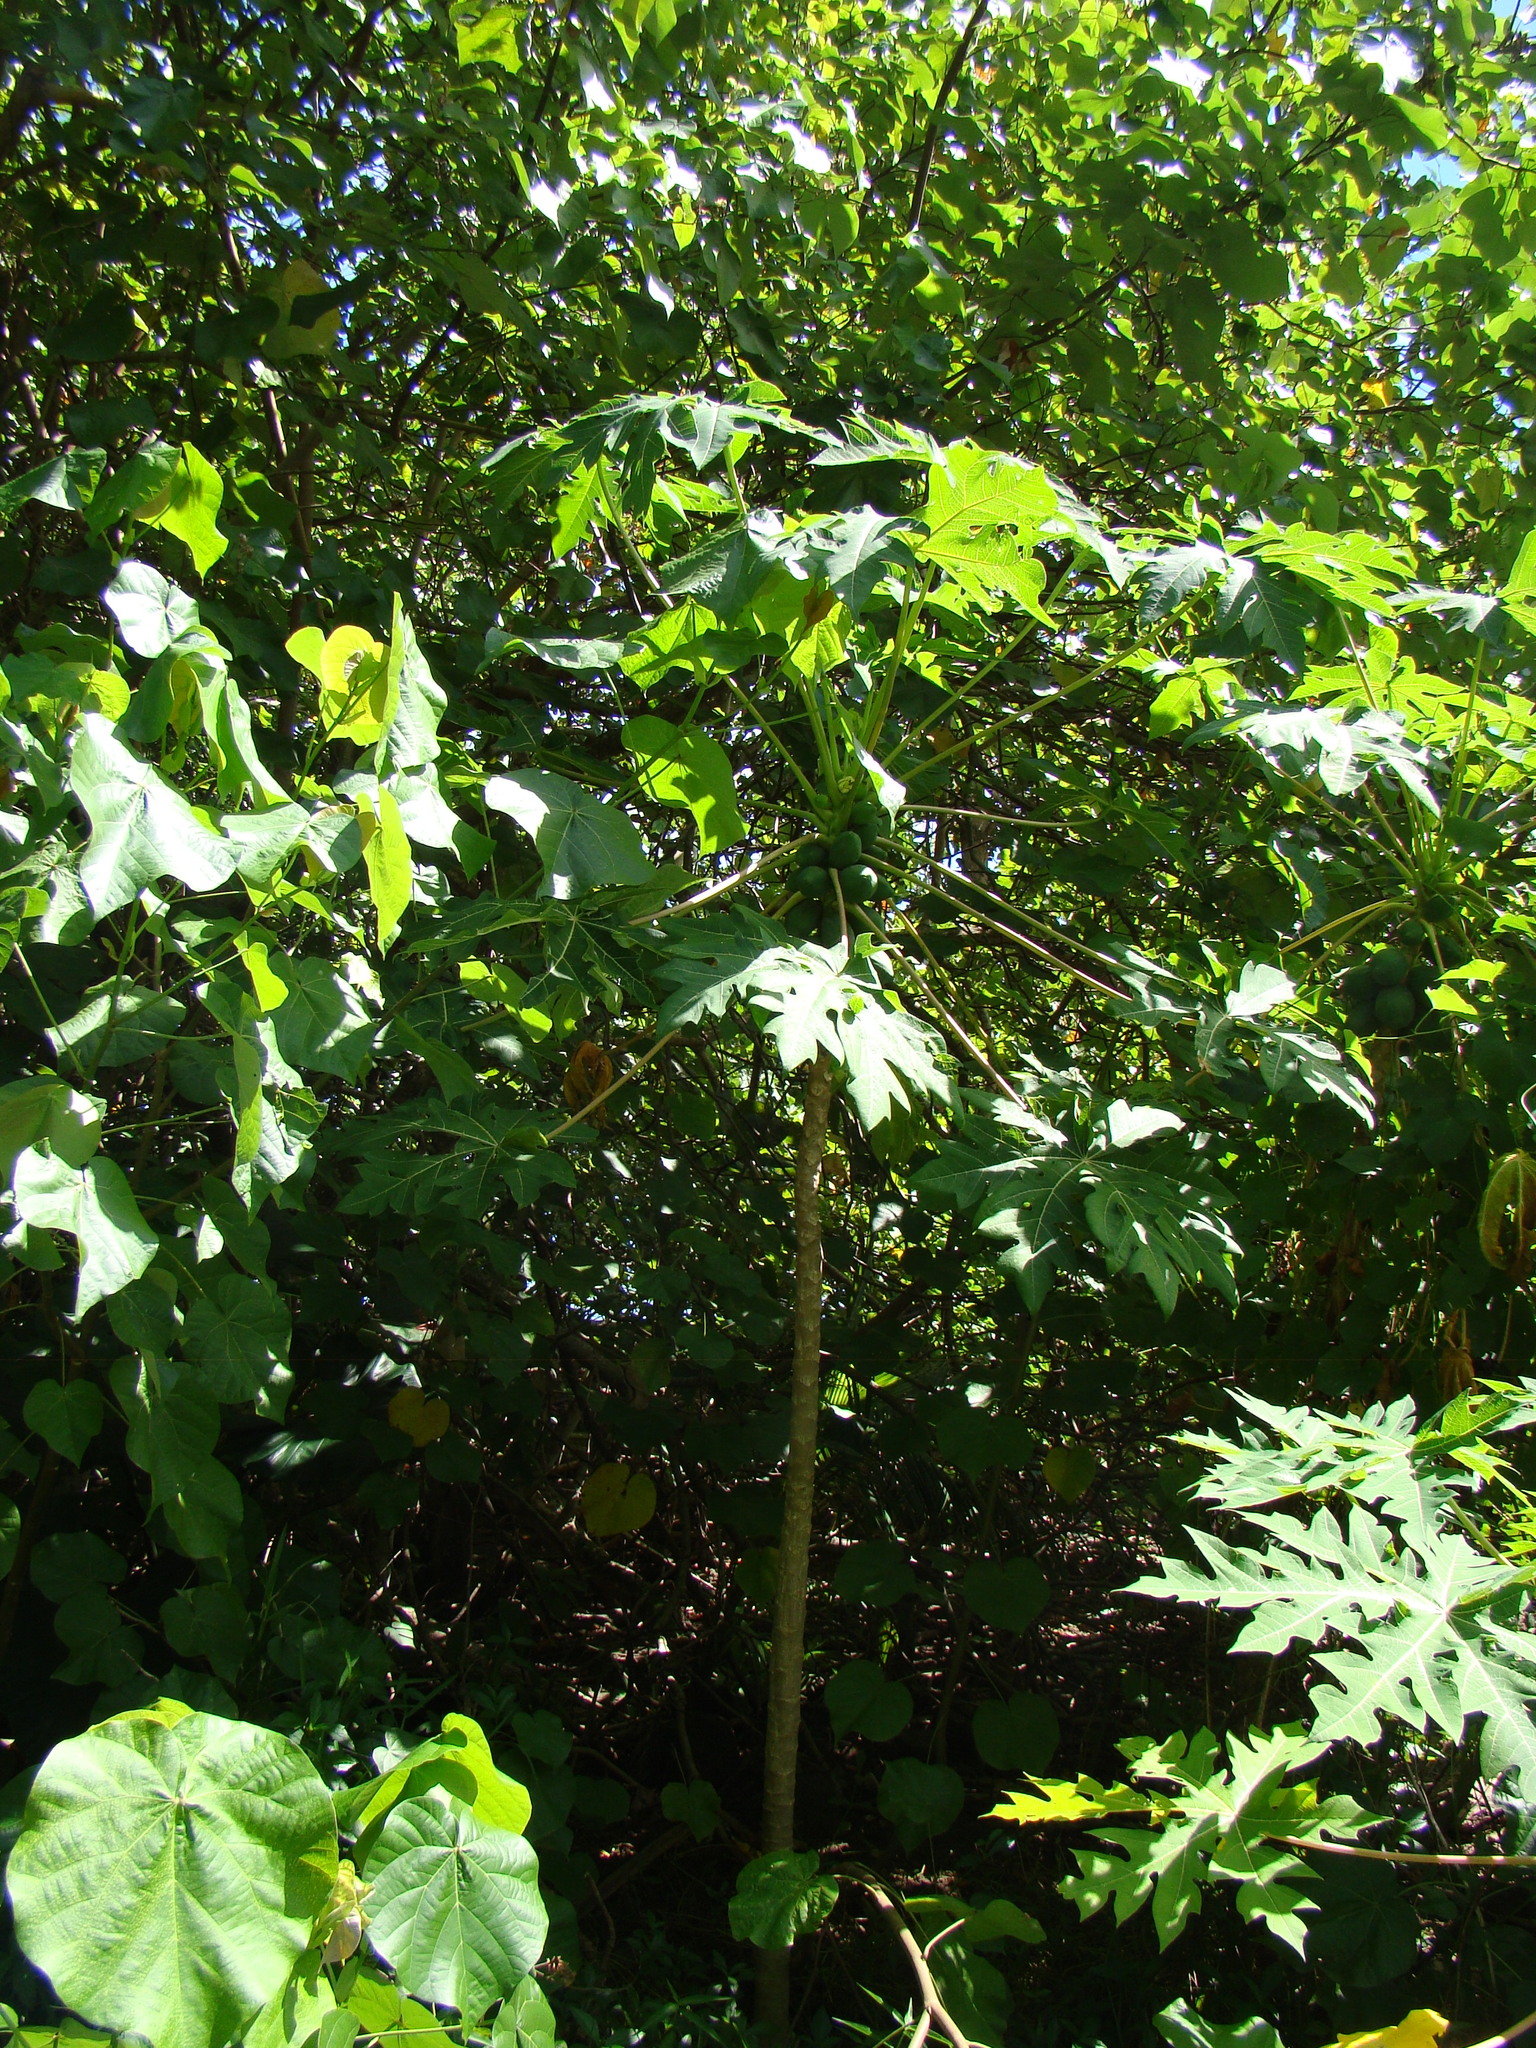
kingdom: Plantae
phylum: Tracheophyta
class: Magnoliopsida
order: Brassicales
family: Caricaceae
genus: Carica
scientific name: Carica papaya
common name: Papaya
